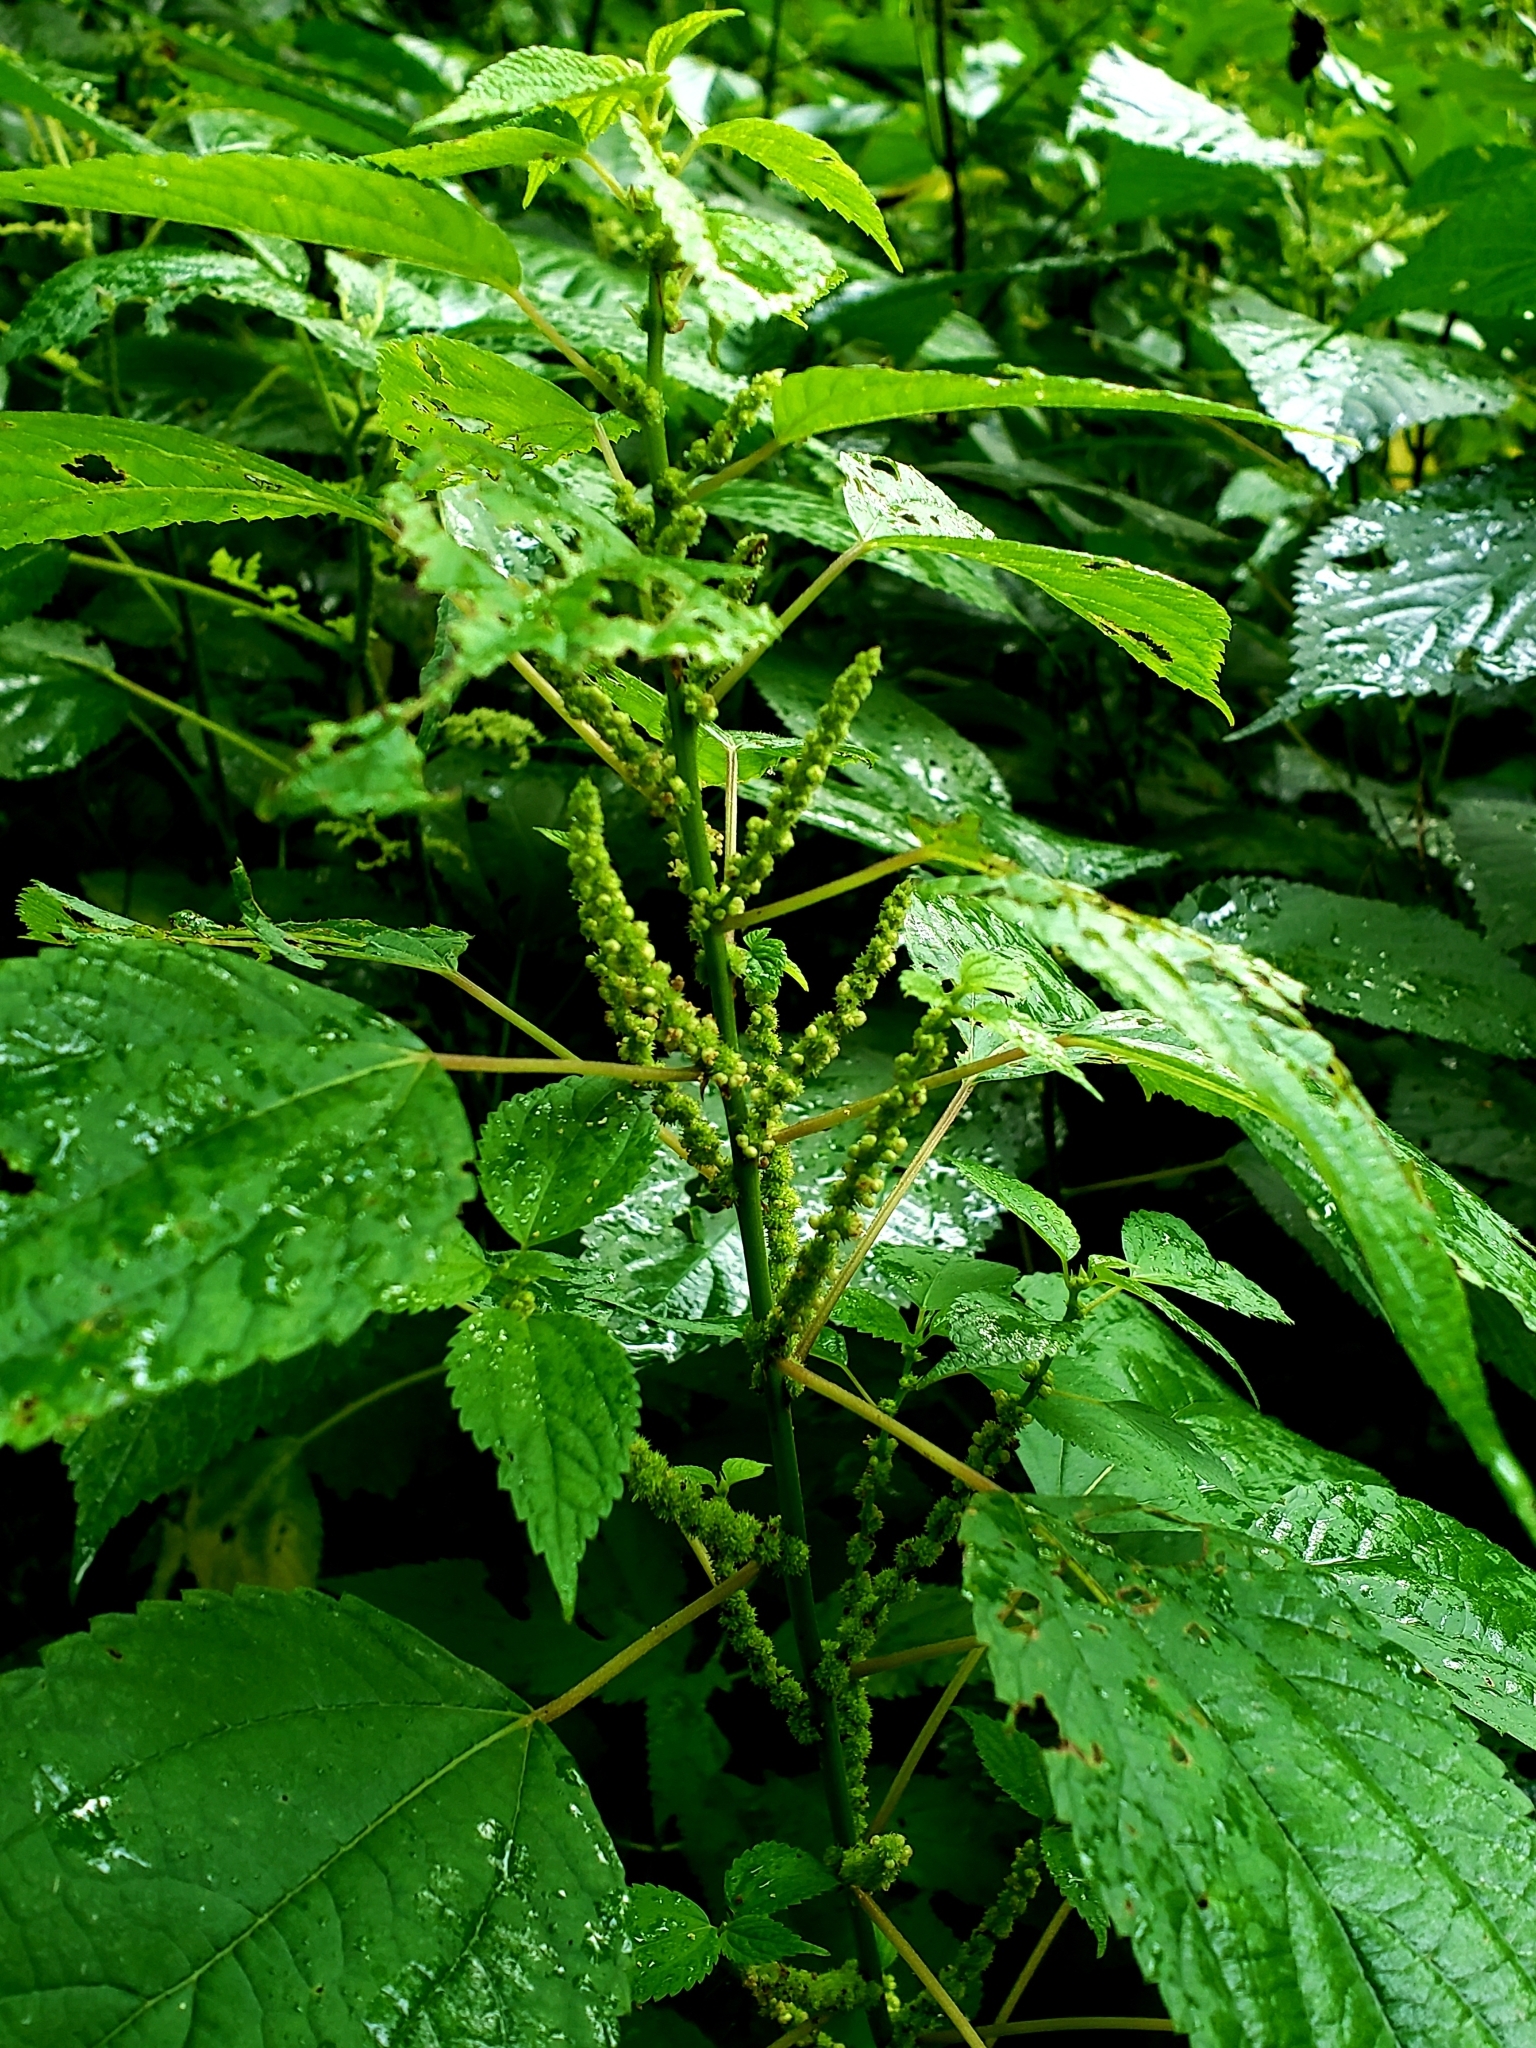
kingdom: Plantae
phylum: Tracheophyta
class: Magnoliopsida
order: Rosales
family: Urticaceae
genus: Boehmeria
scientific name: Boehmeria cylindrica
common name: Bog-hemp
